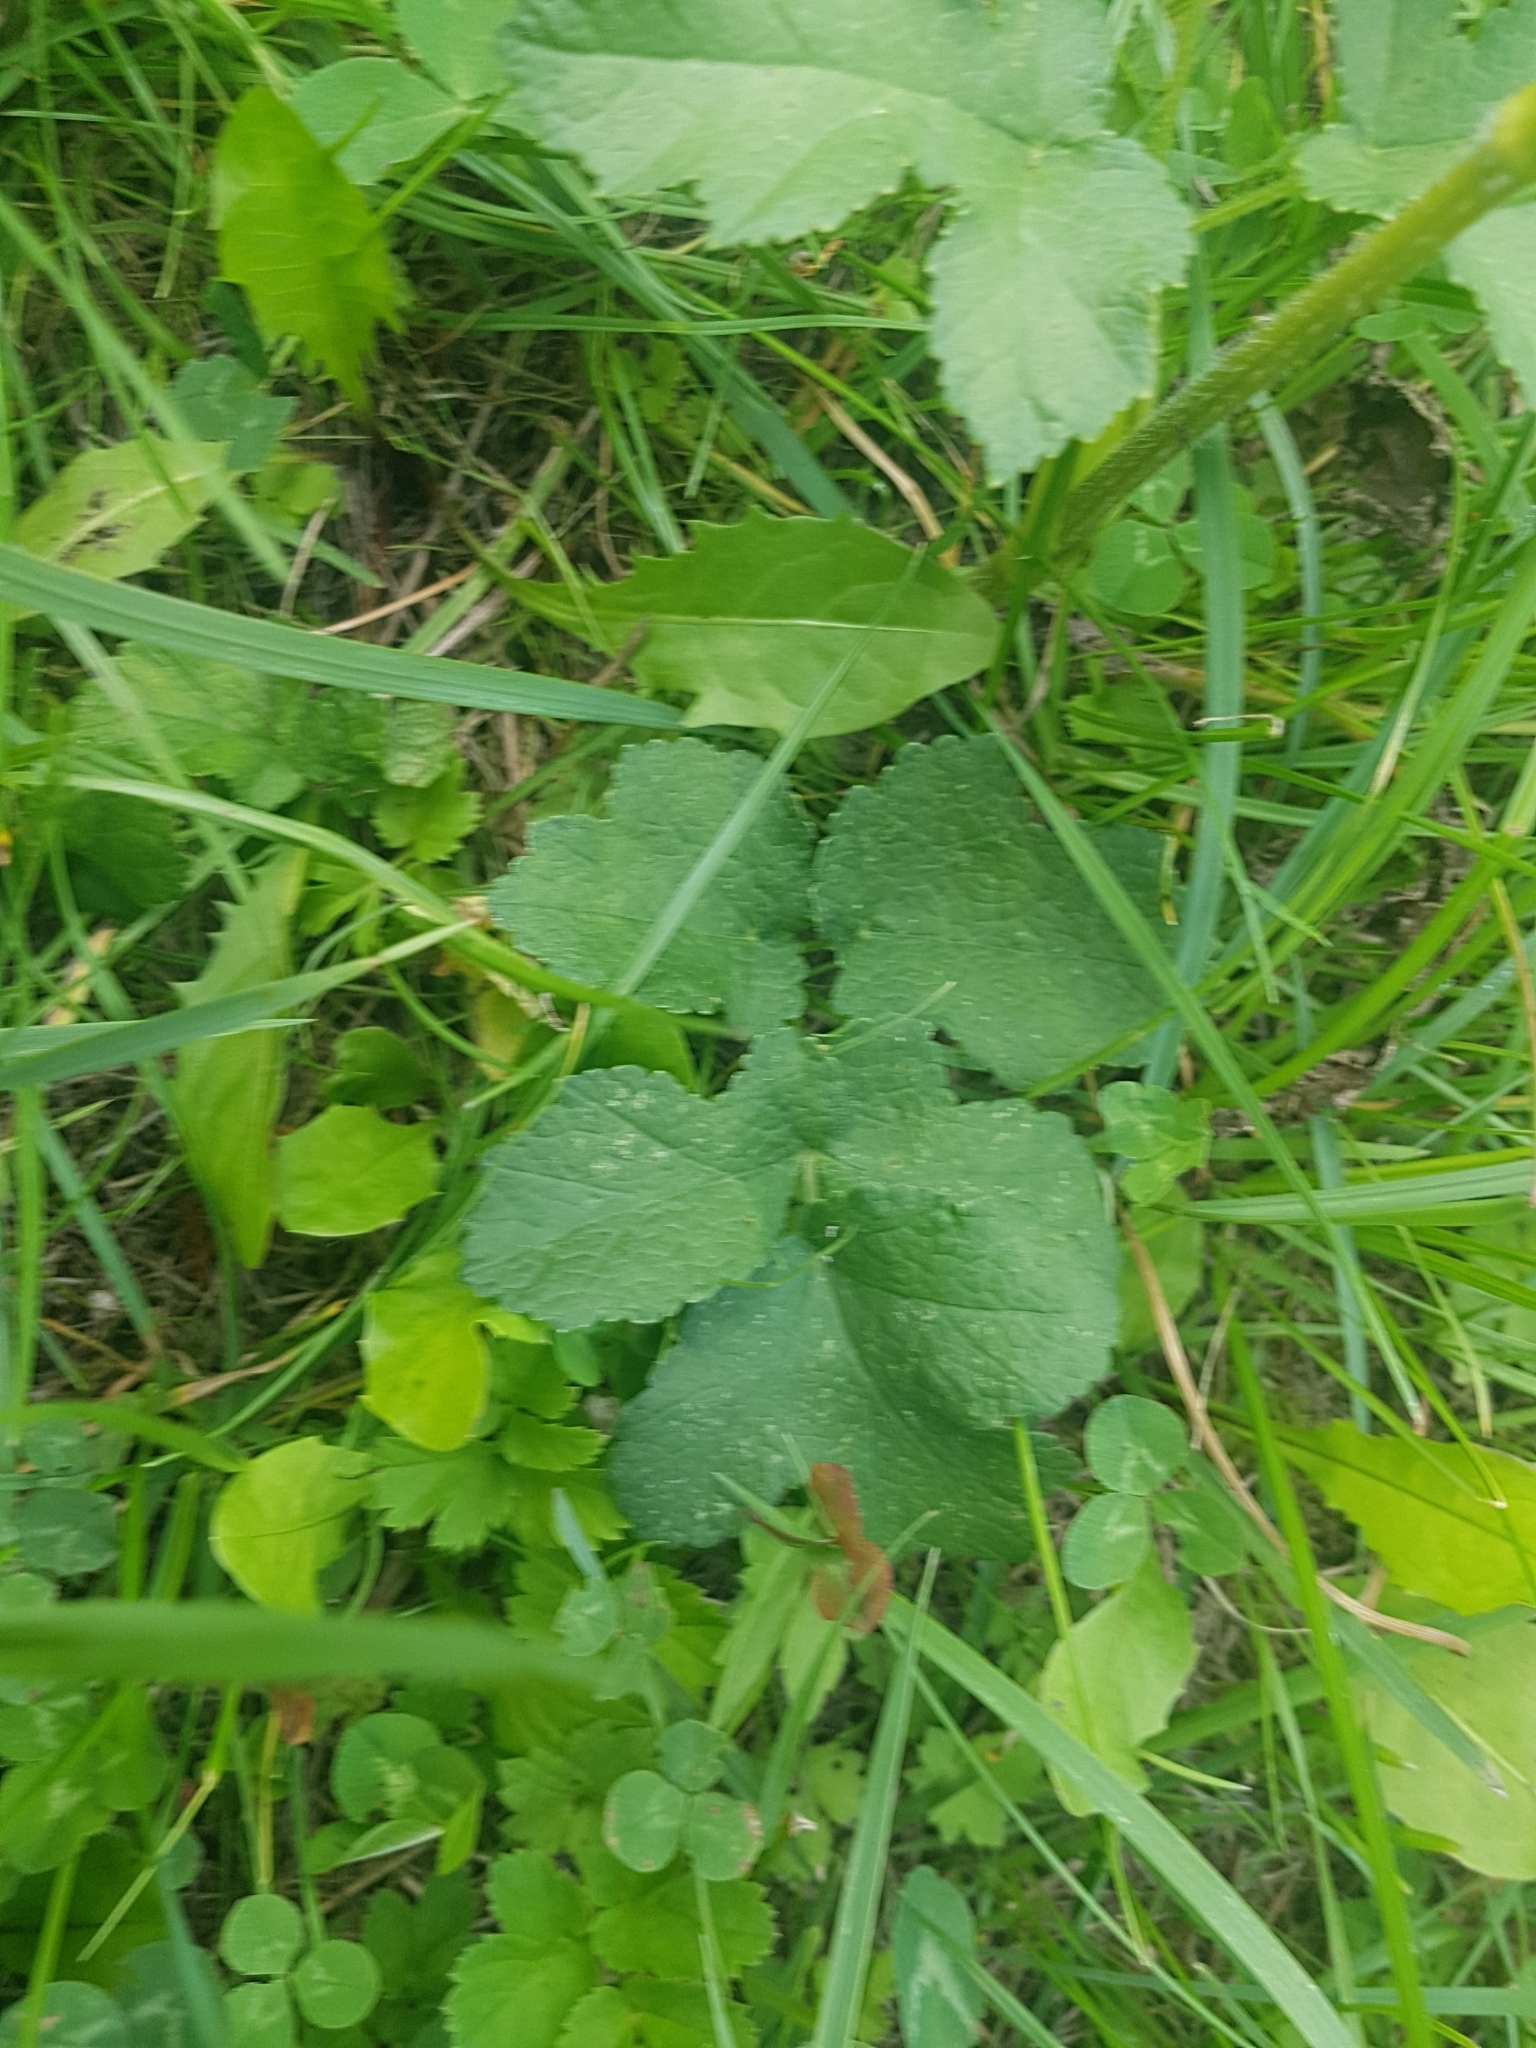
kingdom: Plantae
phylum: Tracheophyta
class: Magnoliopsida
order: Apiales
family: Apiaceae
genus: Heracleum
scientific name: Heracleum sphondylium
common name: Hogweed
